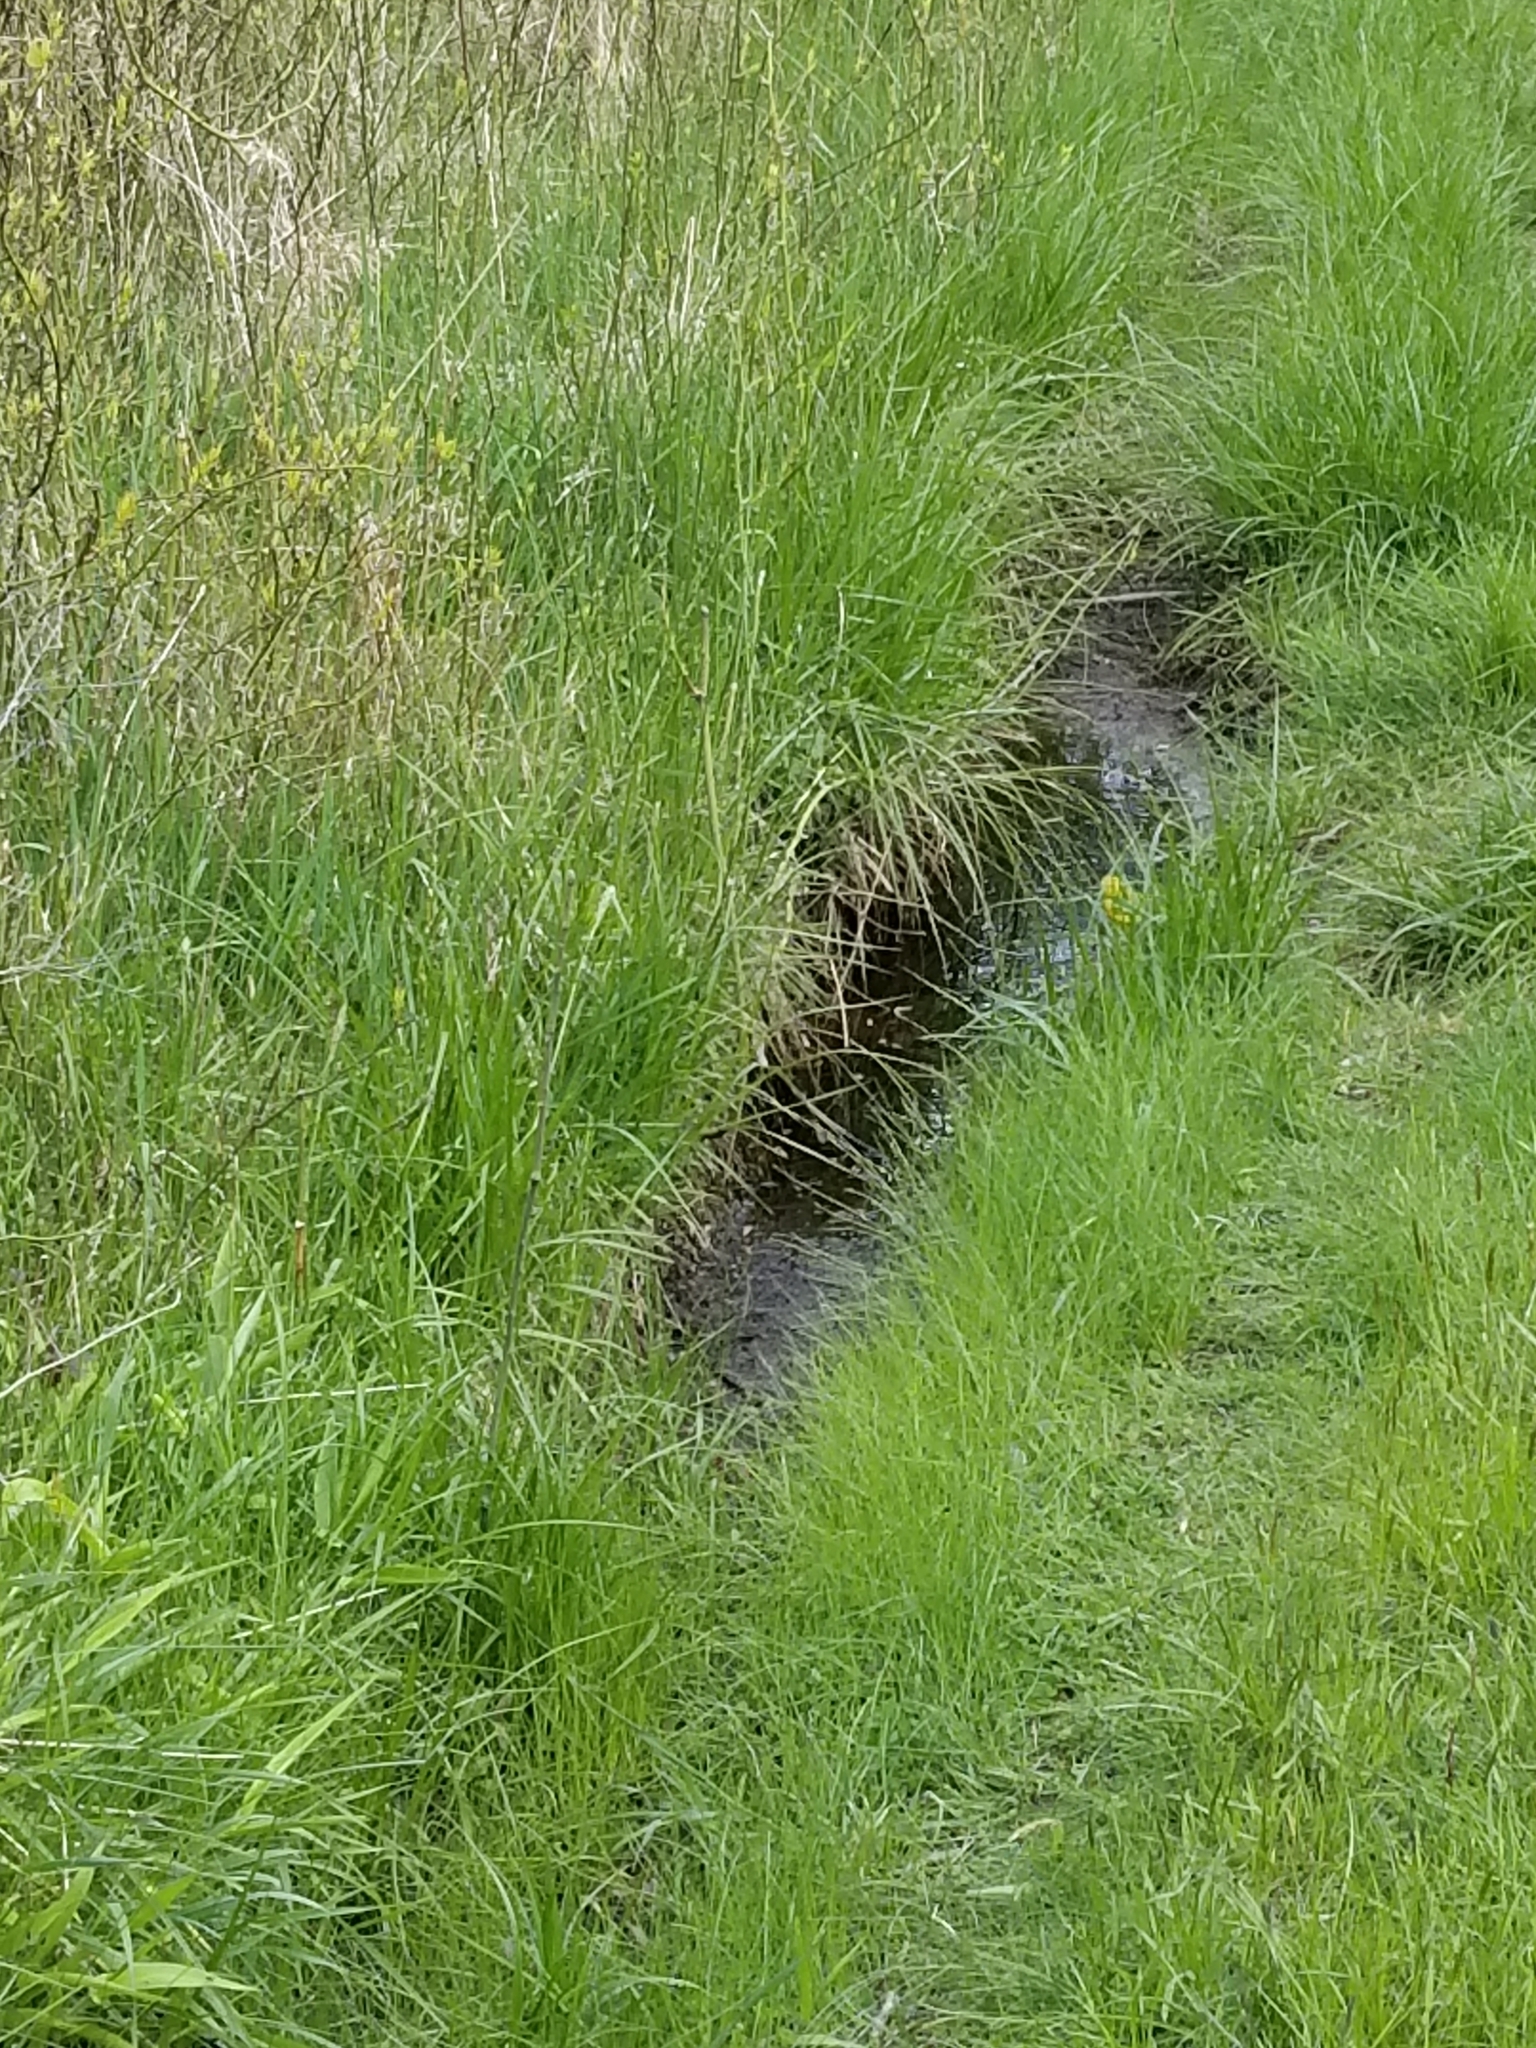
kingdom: Animalia
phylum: Chordata
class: Aves
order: Passeriformes
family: Parulidae
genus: Setophaga
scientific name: Setophaga petechia
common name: Yellow warbler
